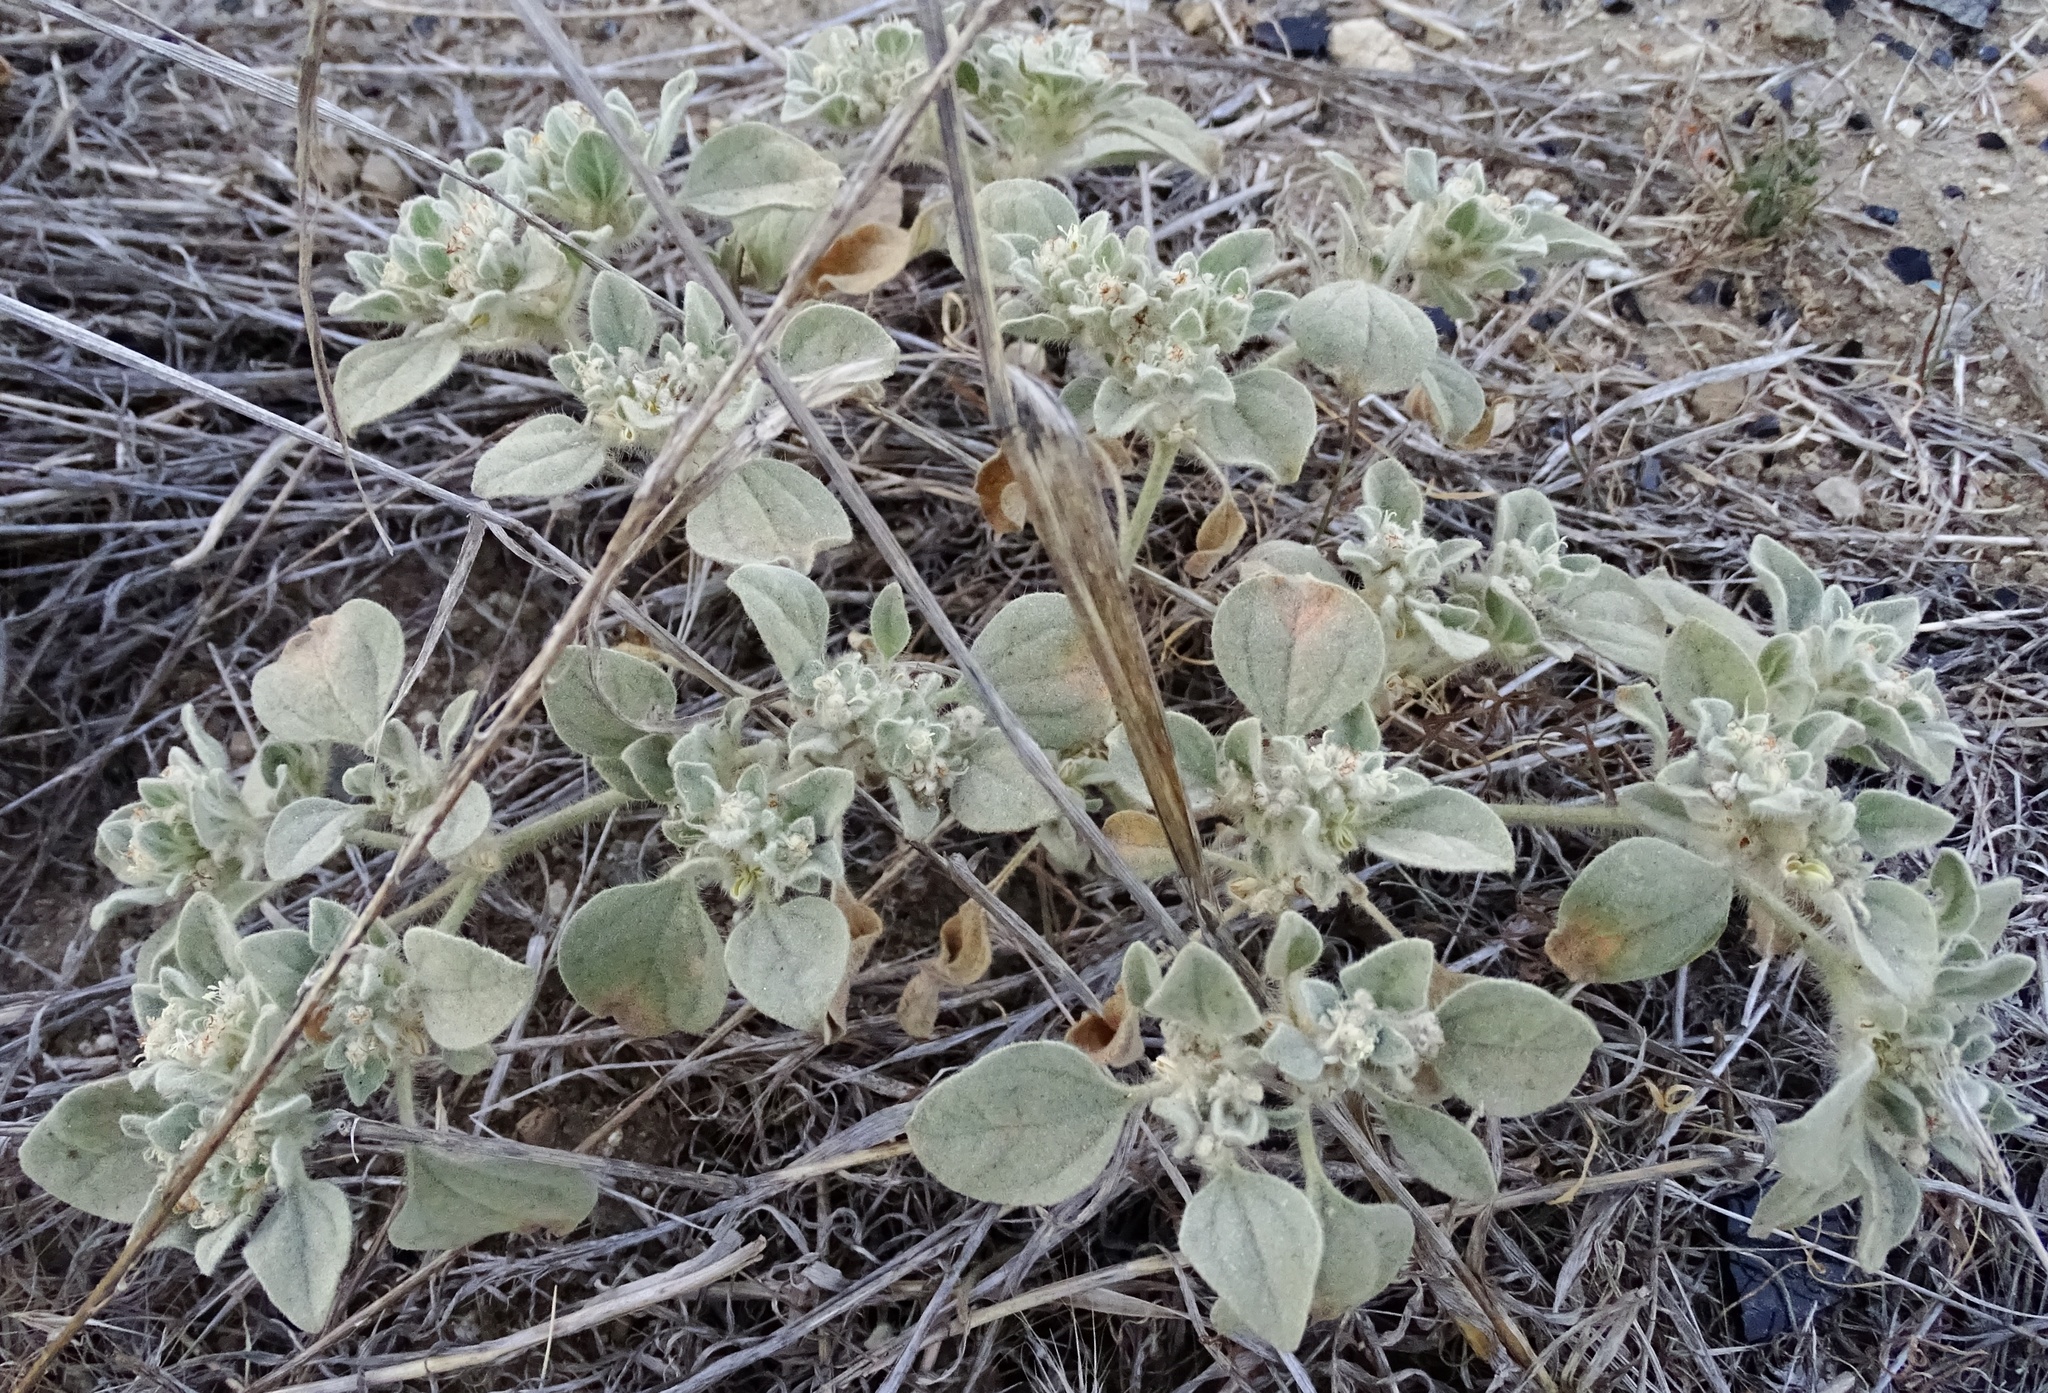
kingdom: Plantae
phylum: Tracheophyta
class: Magnoliopsida
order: Malpighiales
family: Euphorbiaceae
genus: Croton
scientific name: Croton setiger
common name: Dove weed
